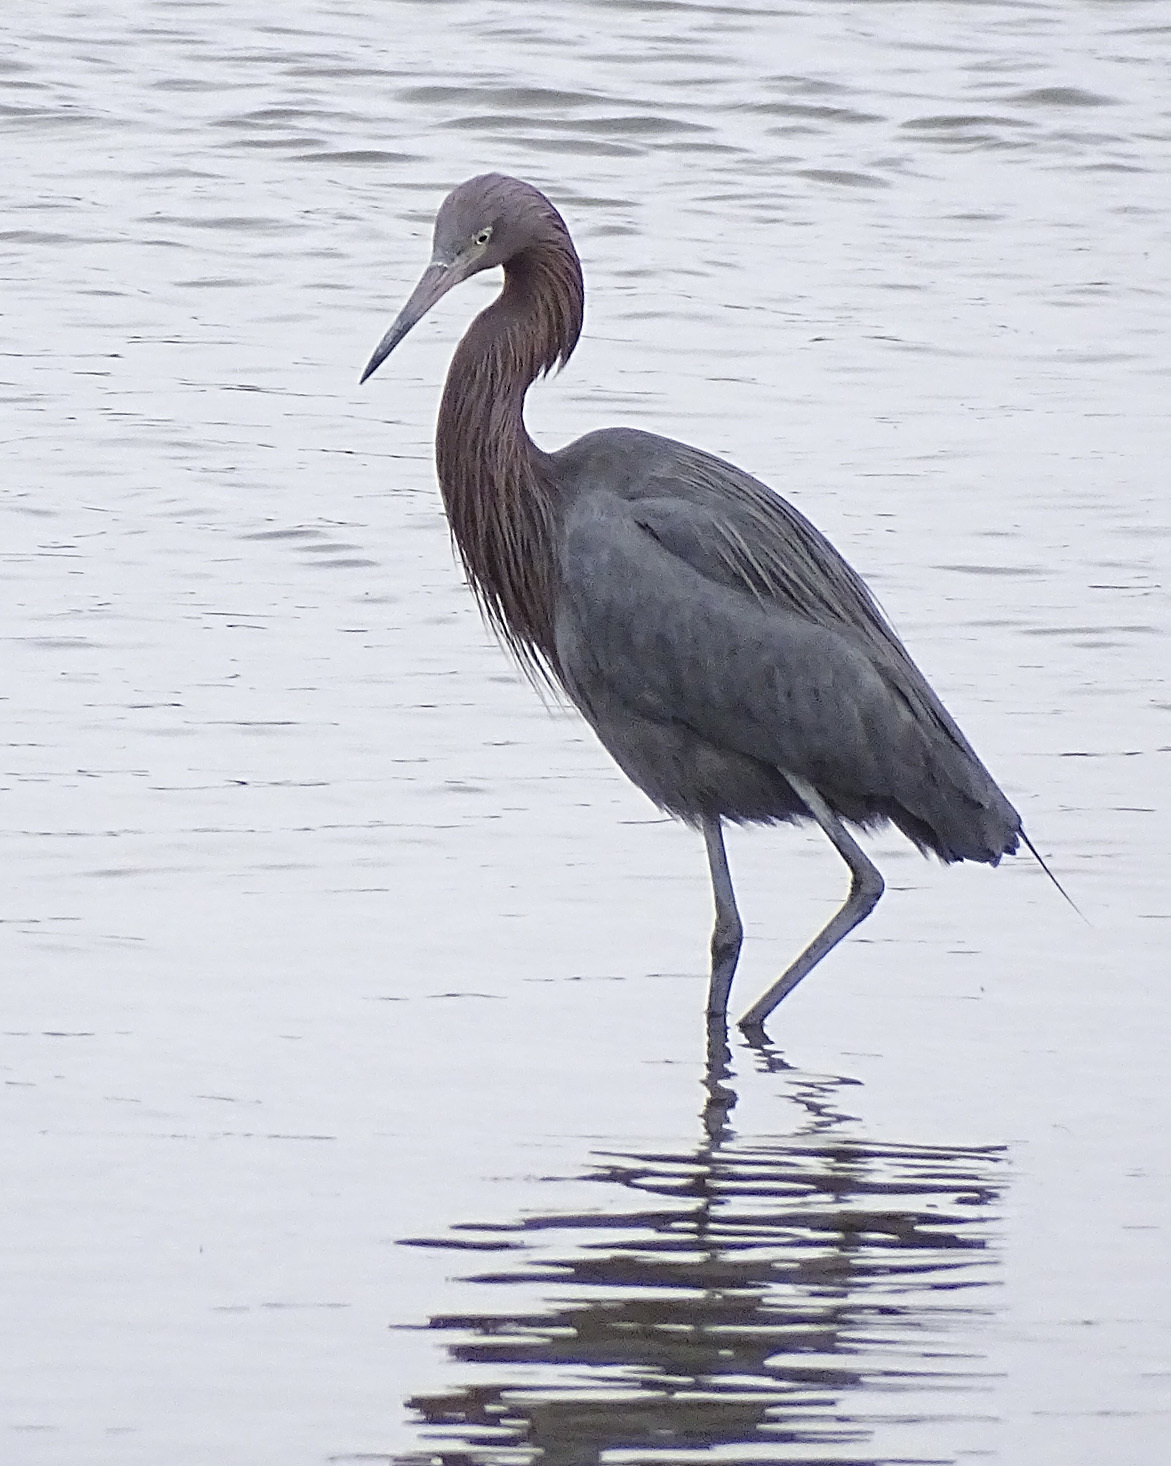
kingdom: Animalia
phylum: Chordata
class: Aves
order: Pelecaniformes
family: Ardeidae
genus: Egretta
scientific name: Egretta rufescens
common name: Reddish egret
